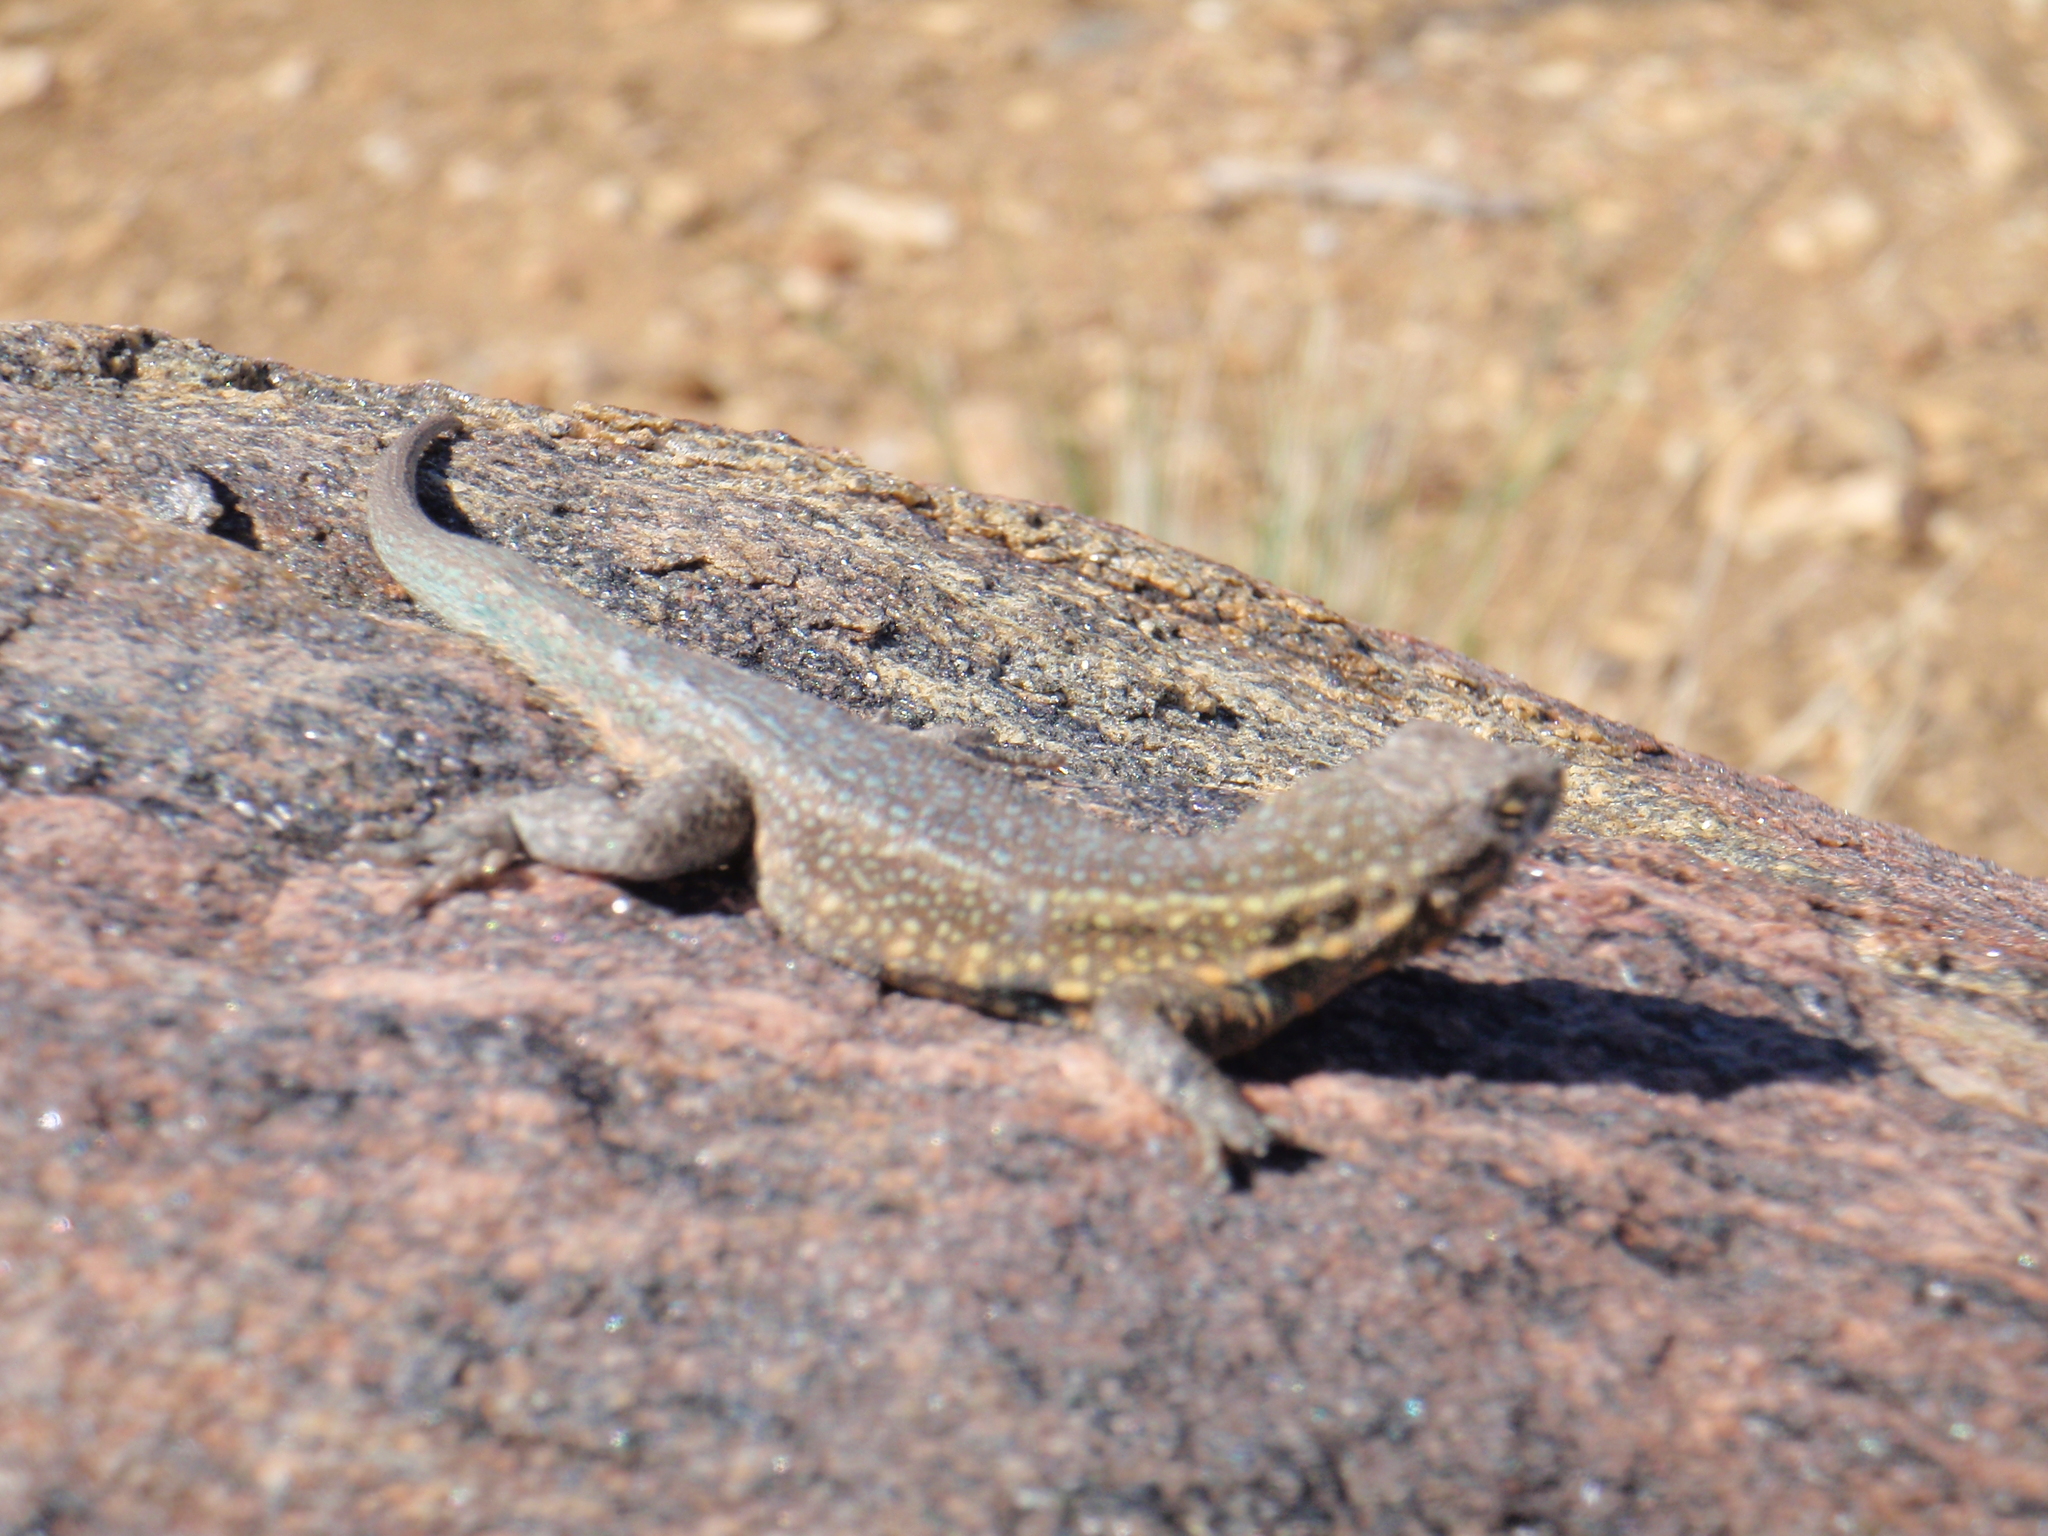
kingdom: Animalia
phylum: Chordata
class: Squamata
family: Phrynosomatidae
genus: Uta
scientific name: Uta stansburiana
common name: Side-blotched lizard
